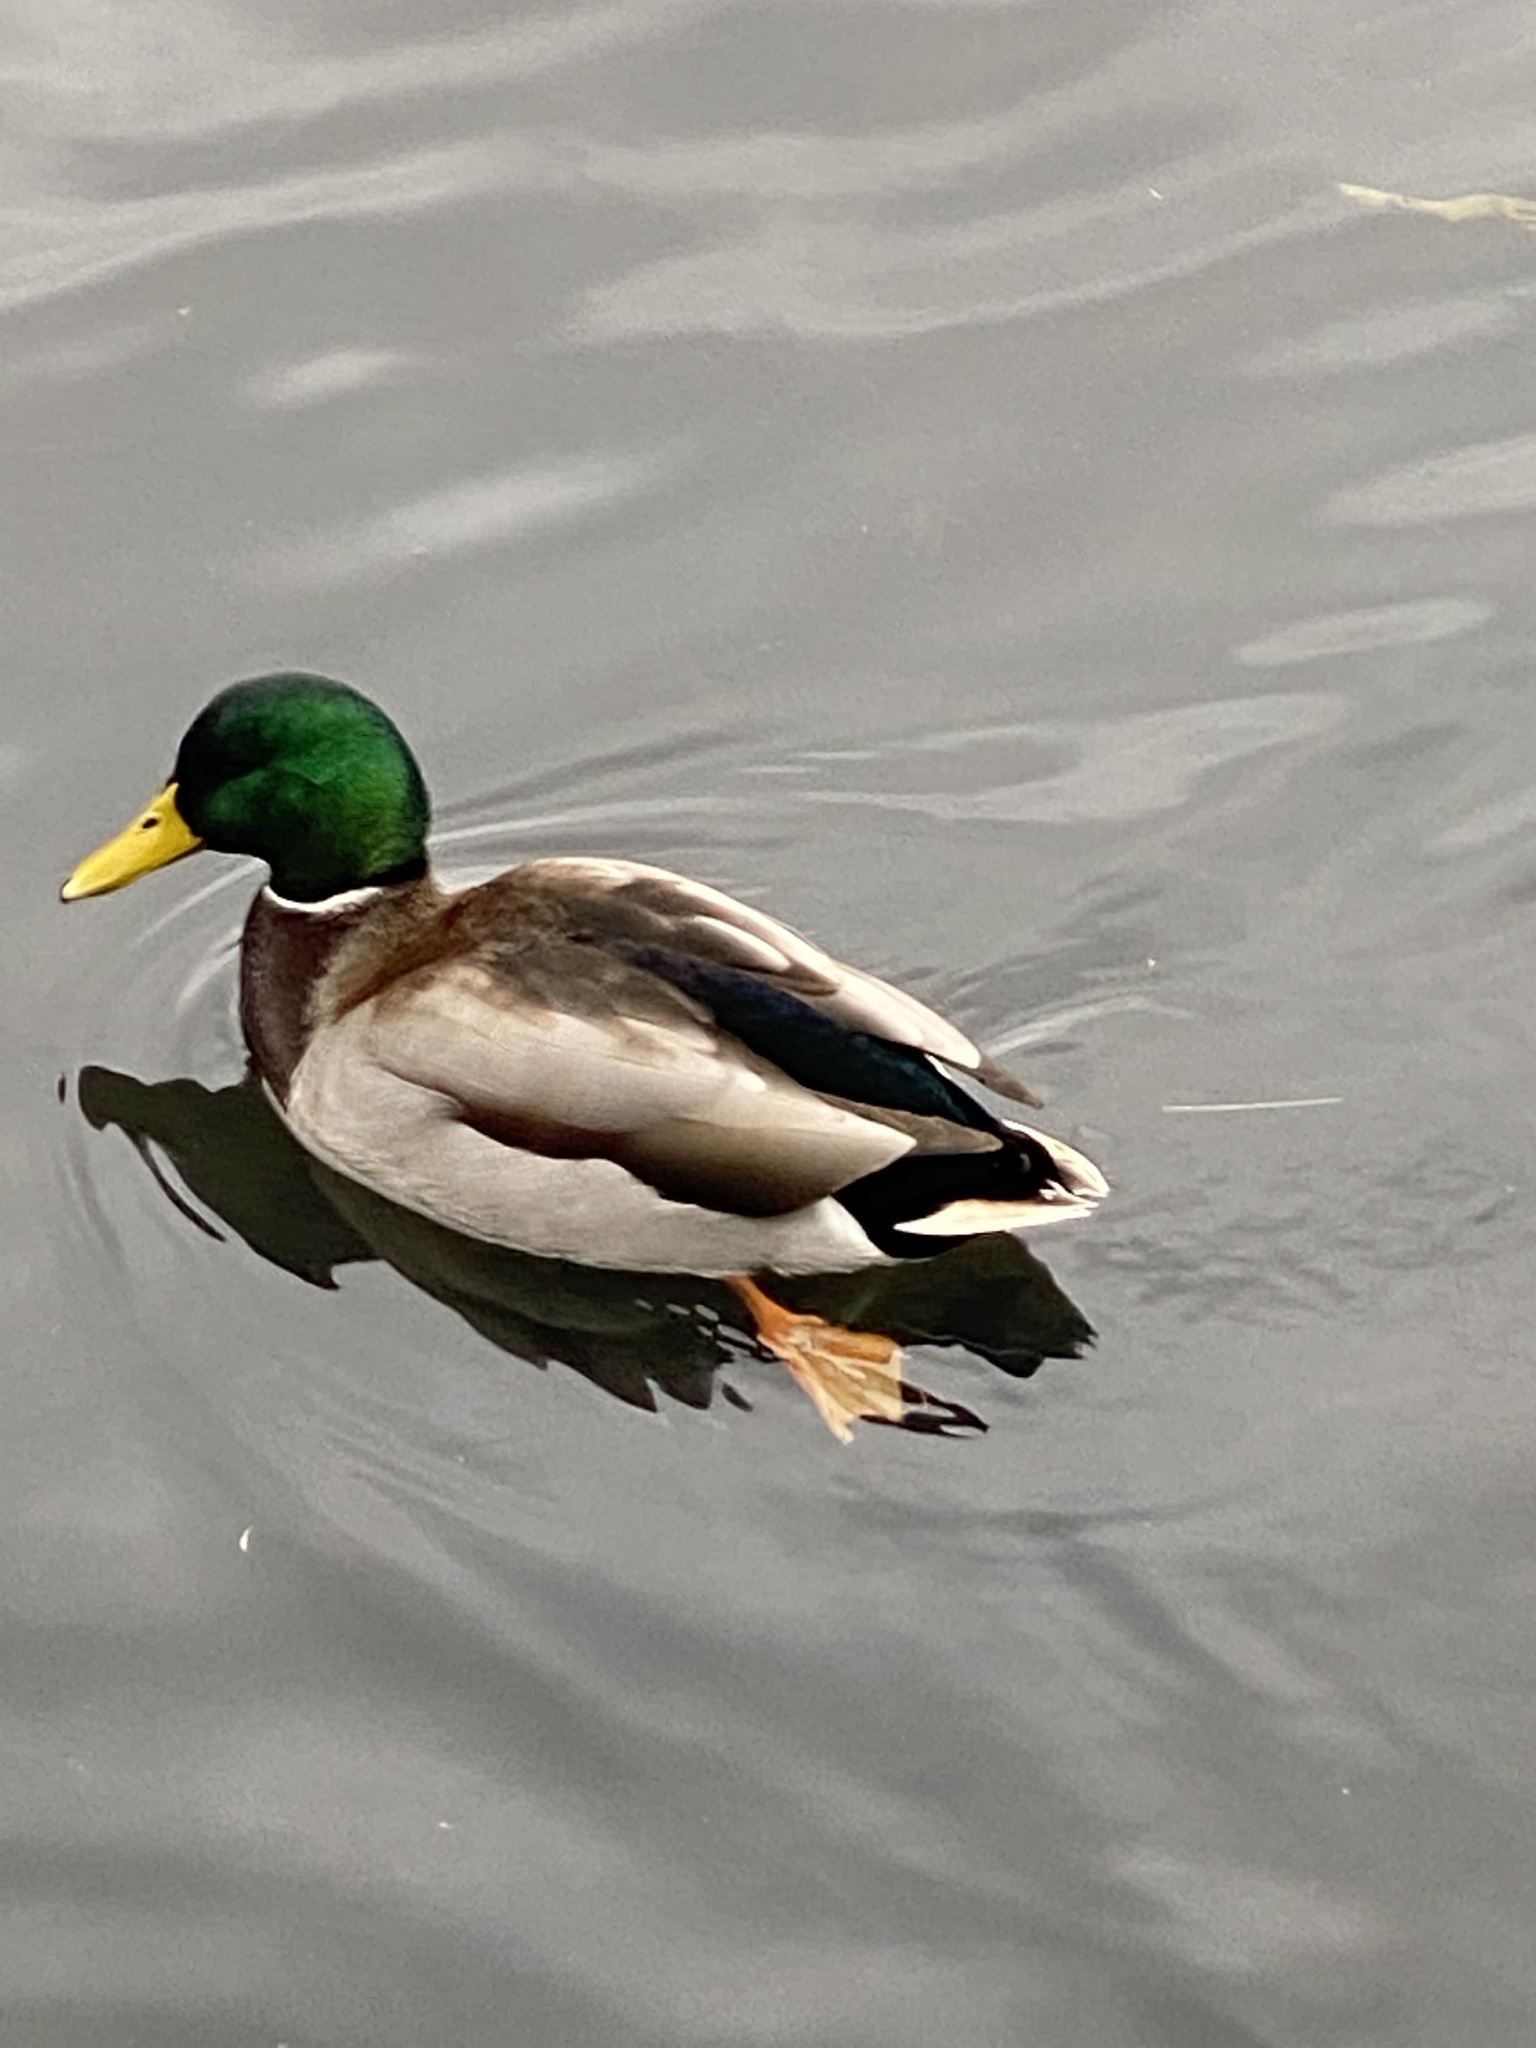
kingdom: Animalia
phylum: Chordata
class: Aves
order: Anseriformes
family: Anatidae
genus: Anas
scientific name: Anas platyrhynchos
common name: Mallard
